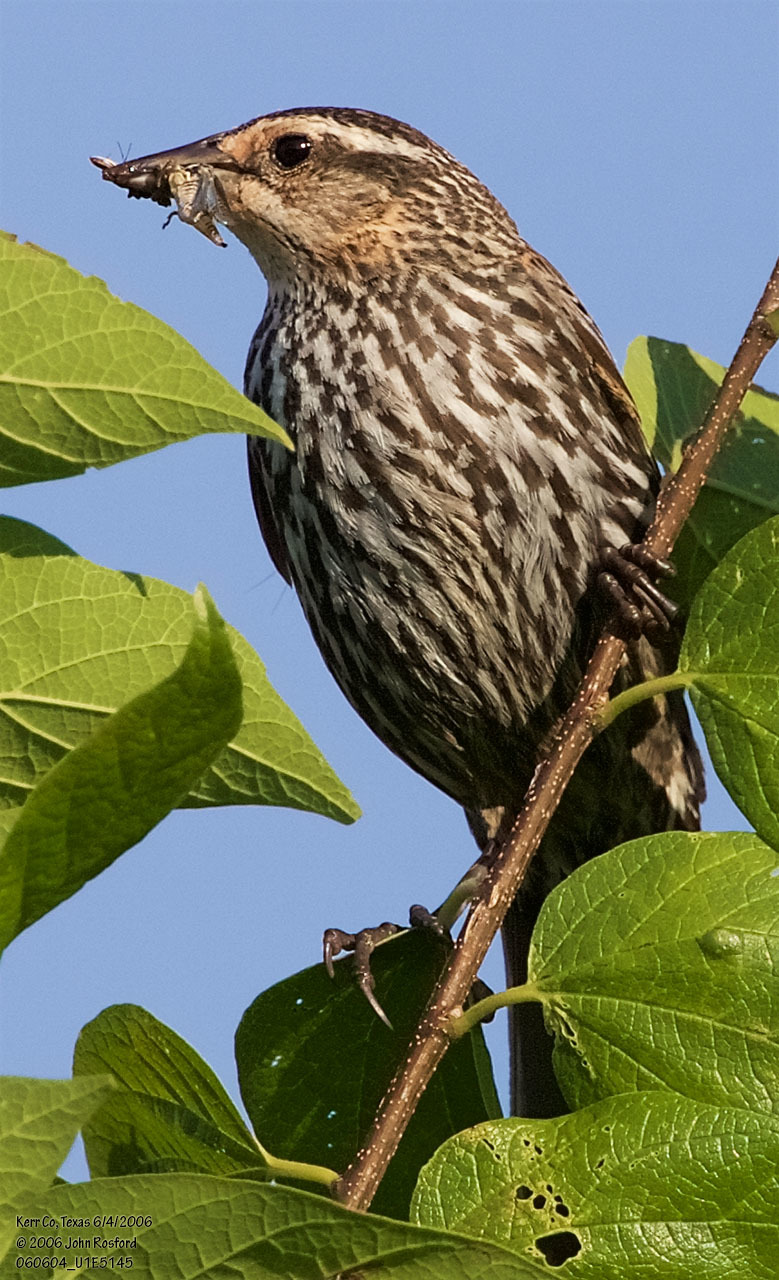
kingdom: Animalia
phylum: Chordata
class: Aves
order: Passeriformes
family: Icteridae
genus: Agelaius
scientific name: Agelaius phoeniceus
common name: Red-winged blackbird
